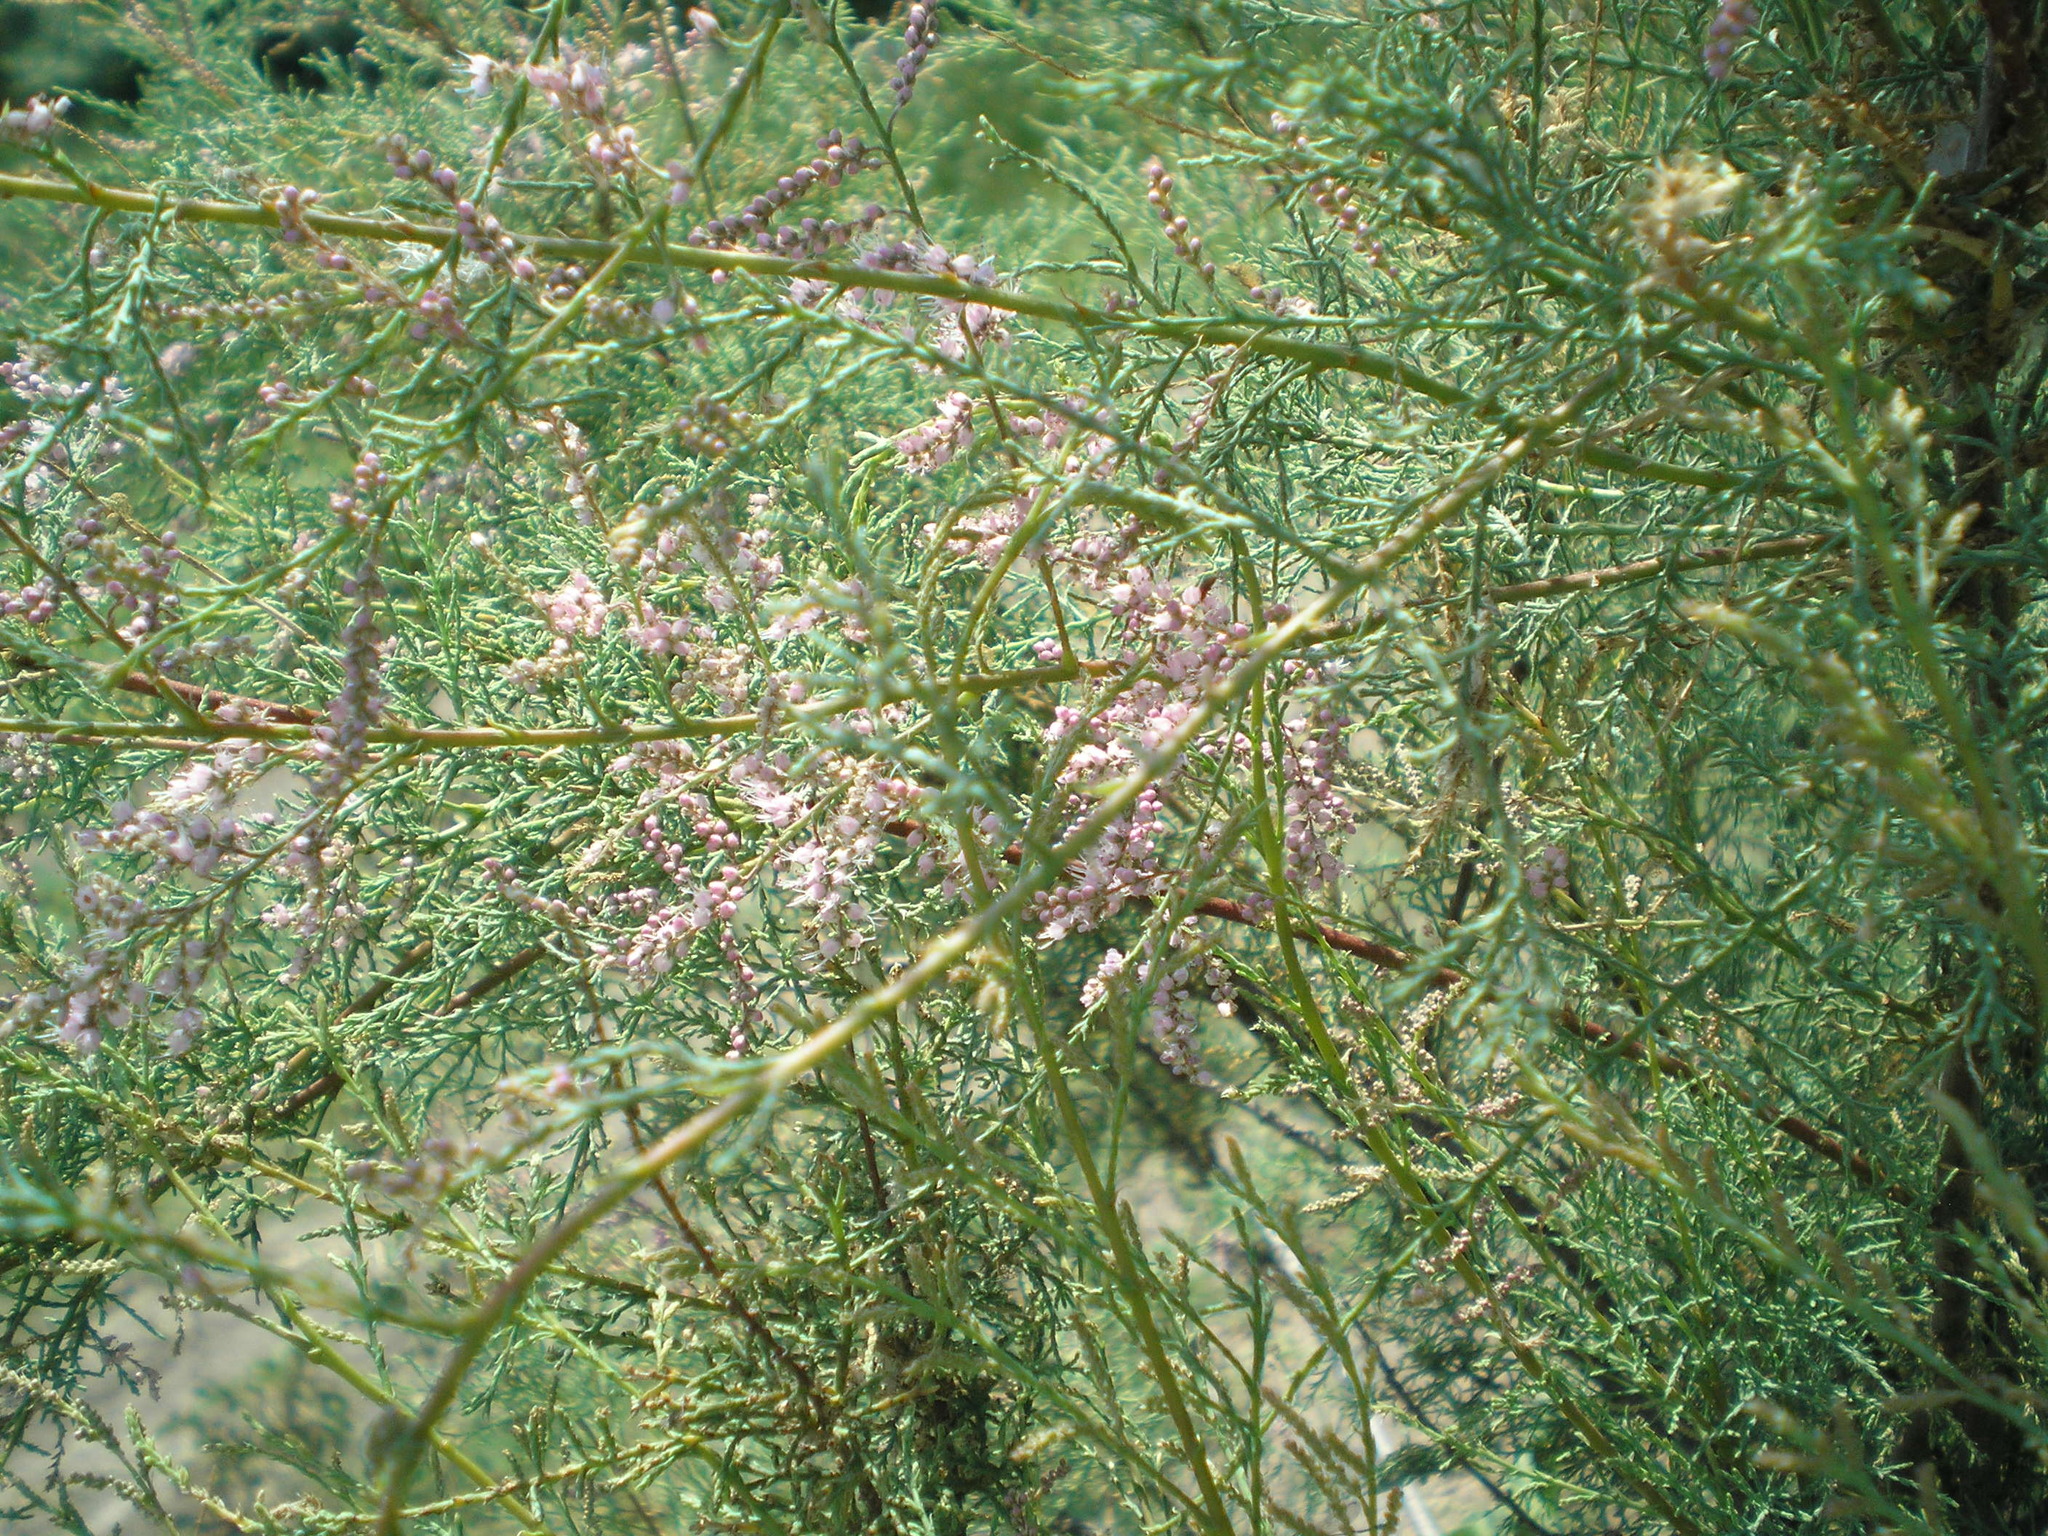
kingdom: Plantae
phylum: Tracheophyta
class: Magnoliopsida
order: Caryophyllales
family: Tamaricaceae
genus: Tamarix
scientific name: Tamarix ramosissima
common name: Pink tamarisk
